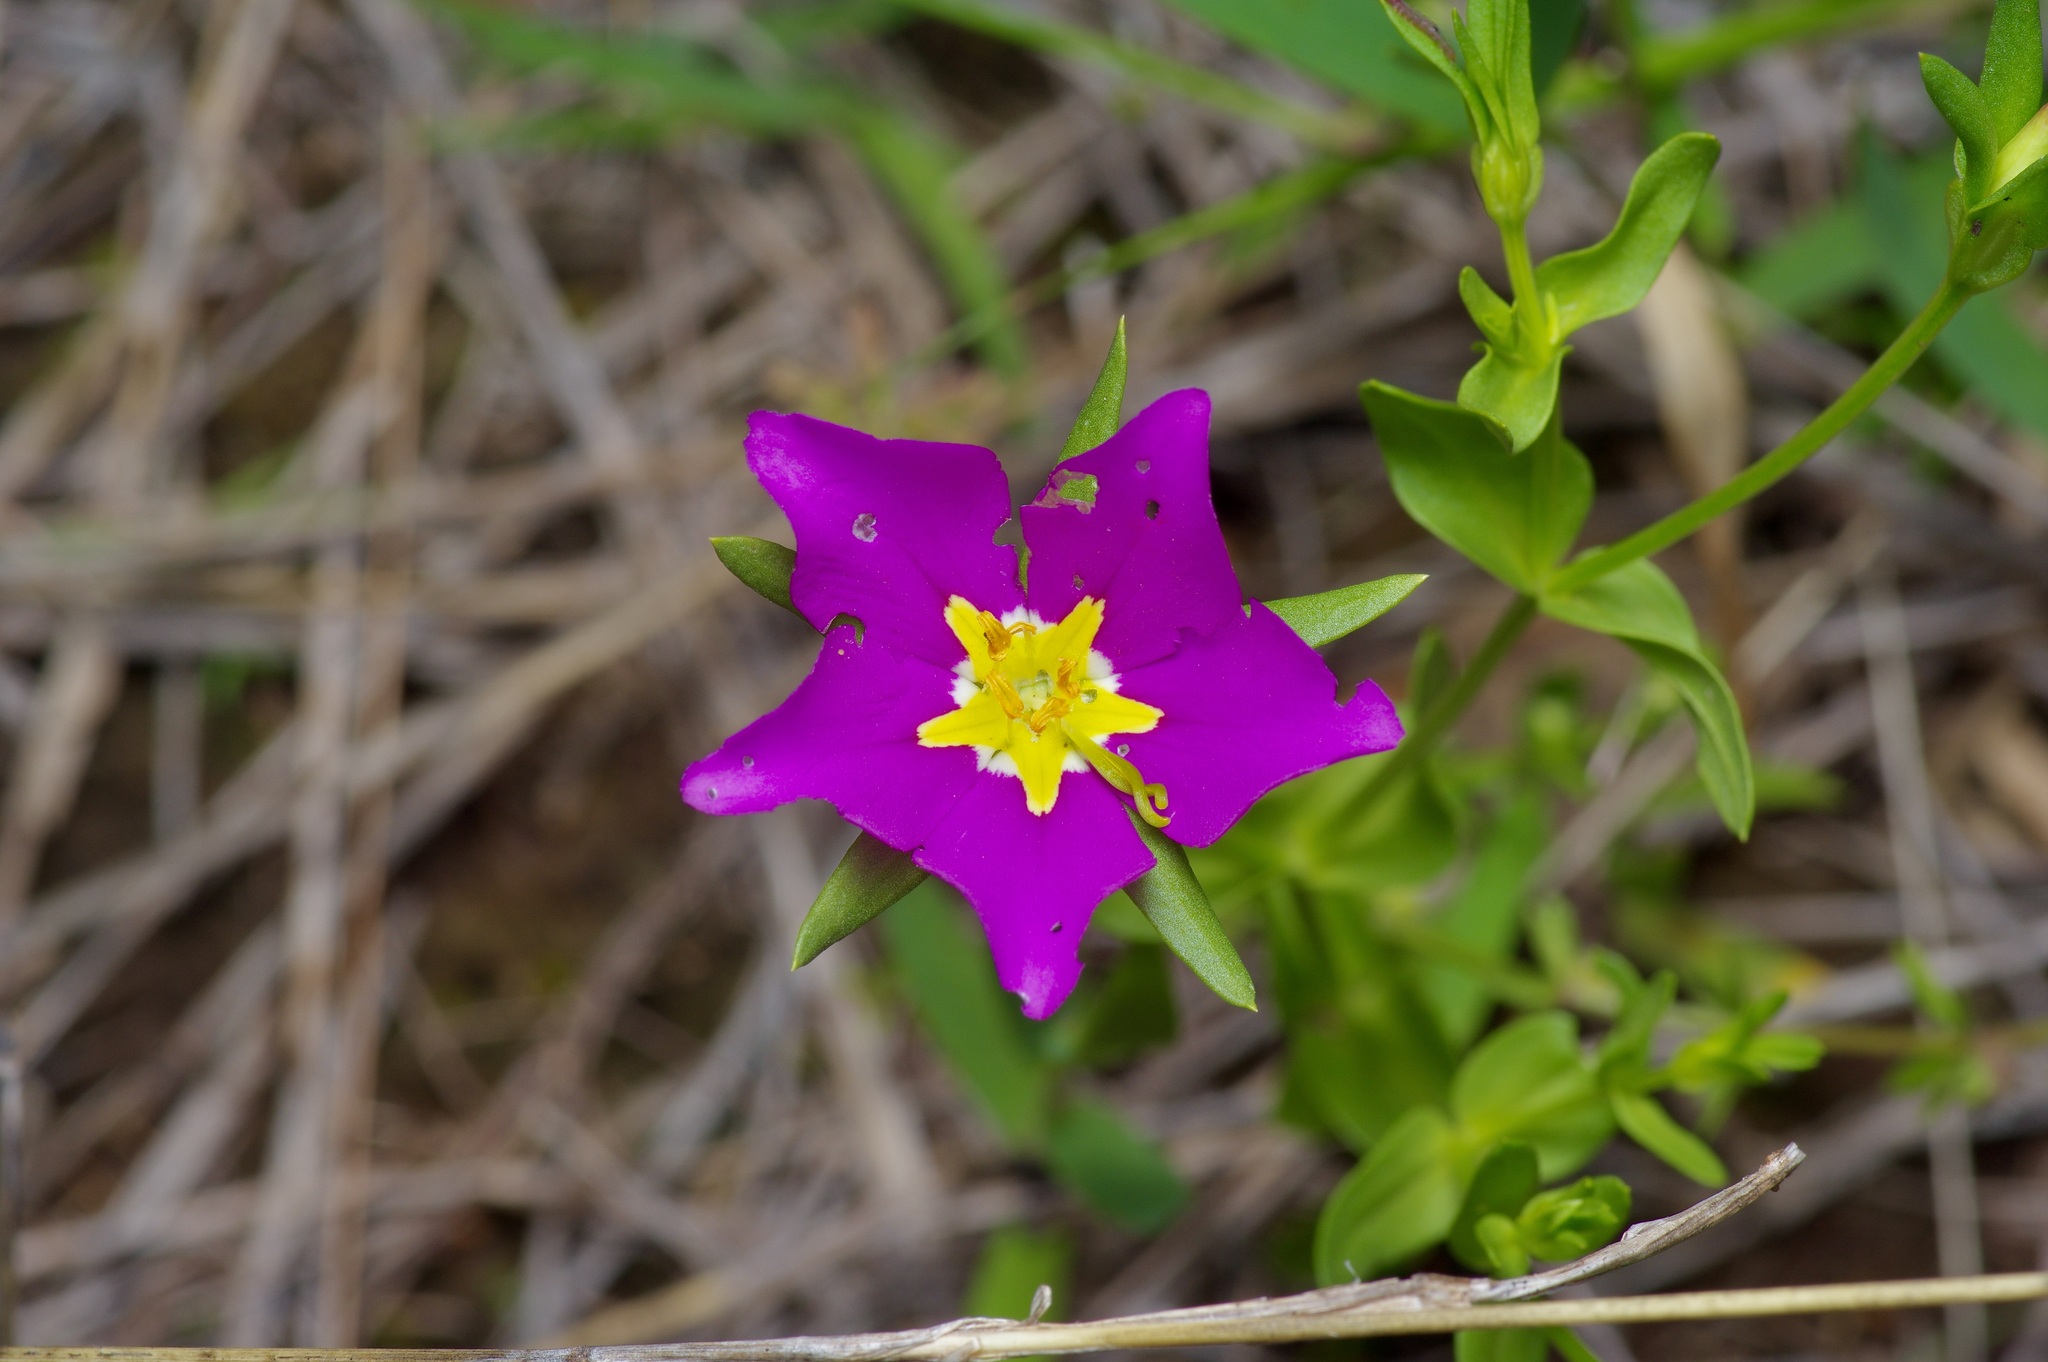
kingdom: Plantae
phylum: Tracheophyta
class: Magnoliopsida
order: Gentianales
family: Gentianaceae
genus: Sabatia
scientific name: Sabatia campestris
